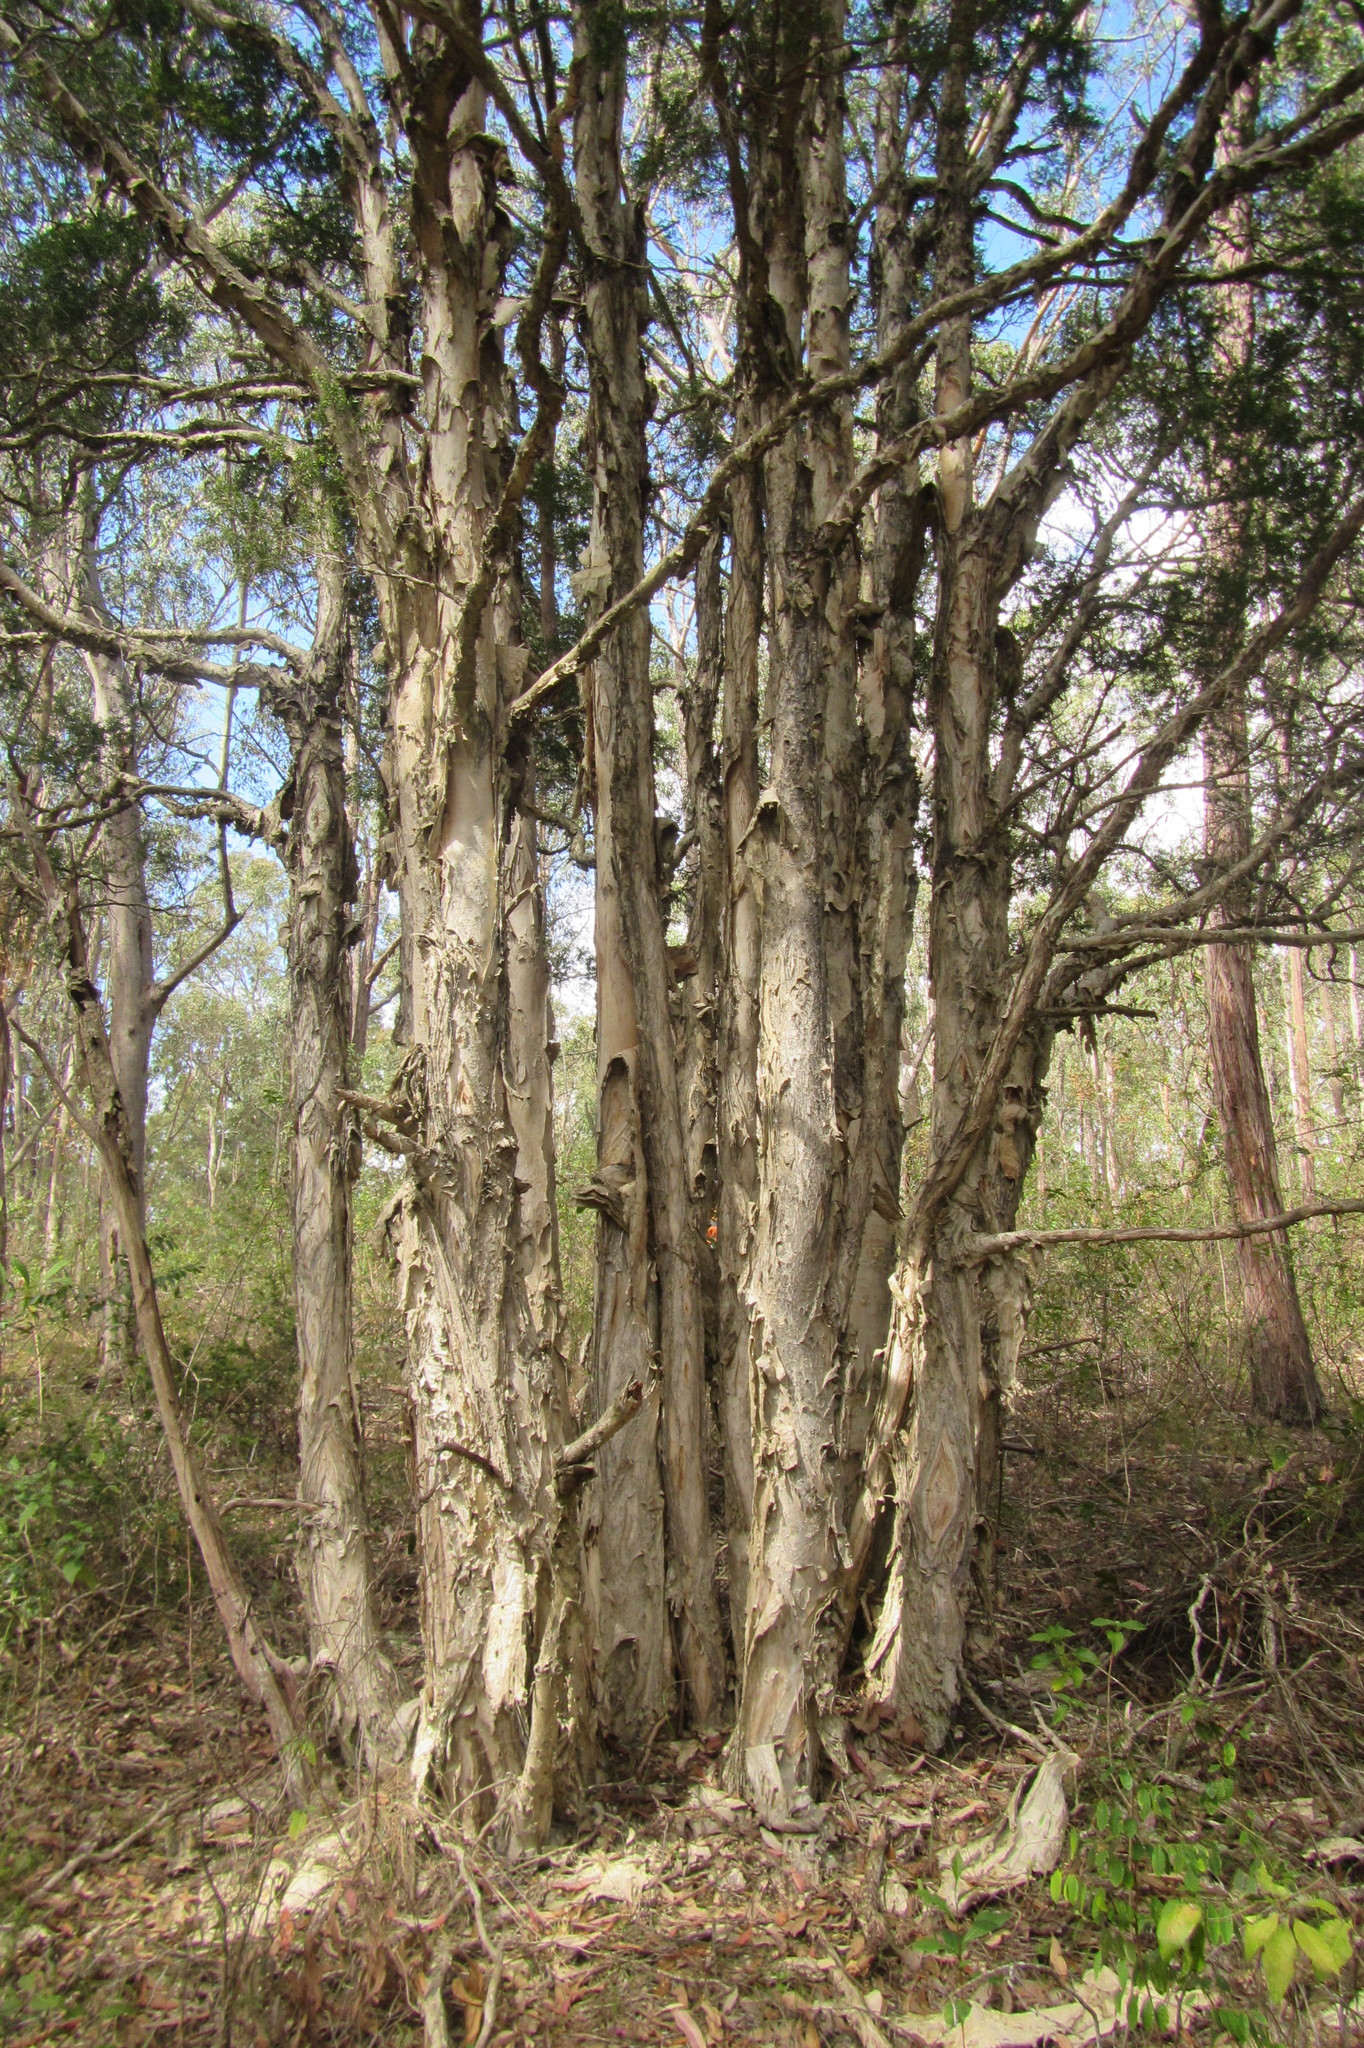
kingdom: Plantae
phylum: Tracheophyta
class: Magnoliopsida
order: Myrtales
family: Myrtaceae
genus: Melaleuca
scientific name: Melaleuca styphelioides
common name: Prickly paperbark
